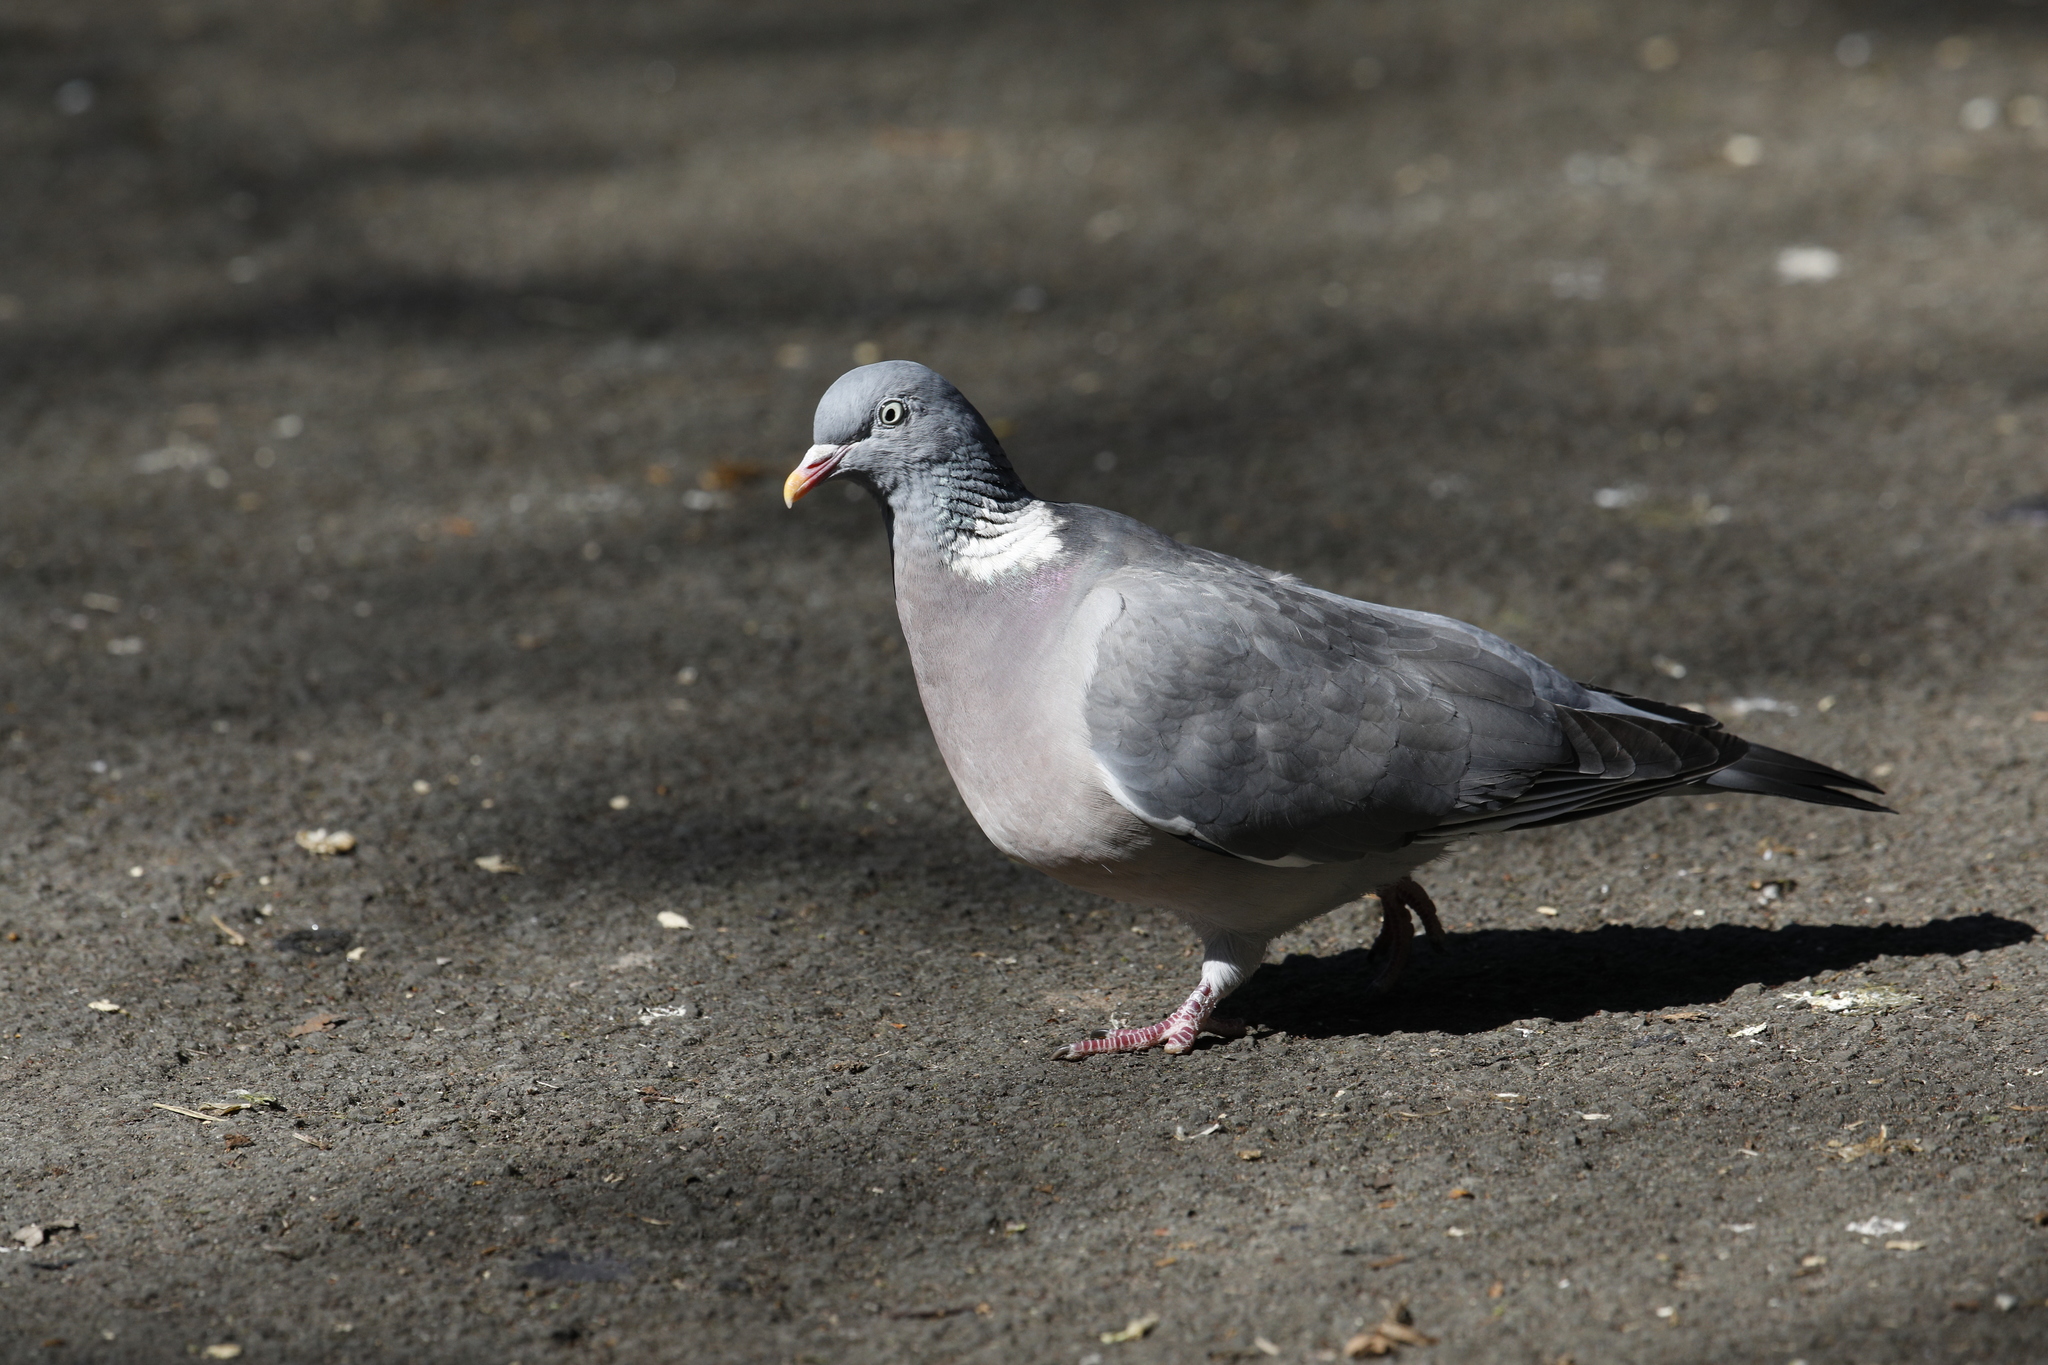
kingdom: Animalia
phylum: Chordata
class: Aves
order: Columbiformes
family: Columbidae
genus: Columba
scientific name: Columba palumbus
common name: Common wood pigeon
